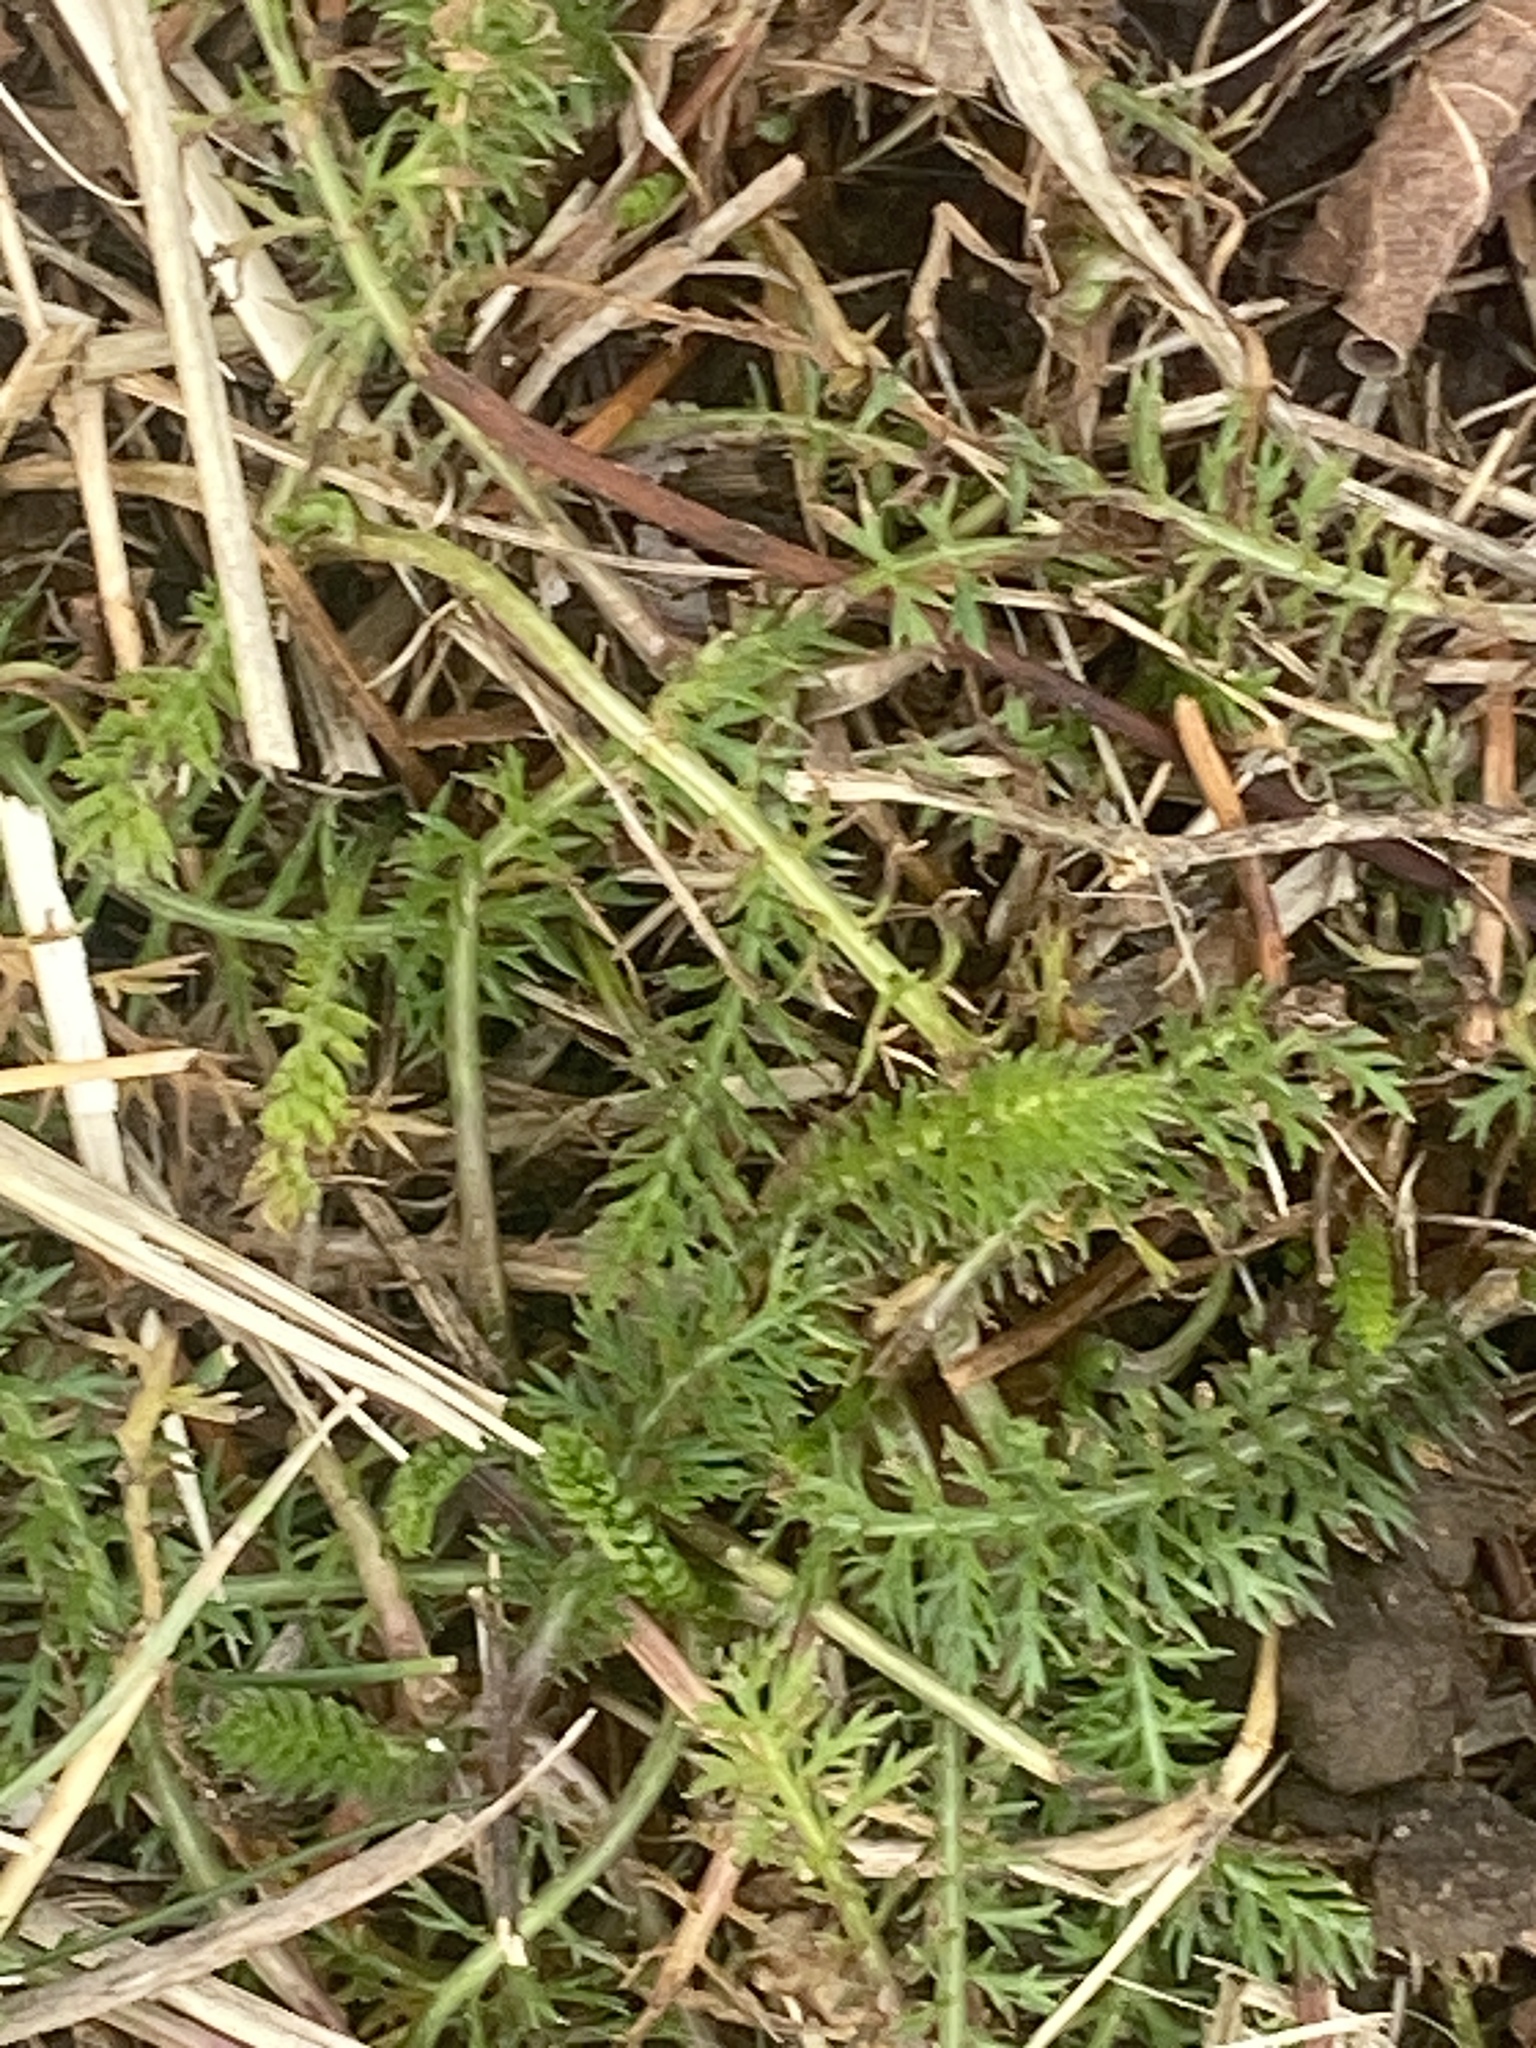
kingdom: Plantae
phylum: Tracheophyta
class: Magnoliopsida
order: Asterales
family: Asteraceae
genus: Achillea
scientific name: Achillea millefolium
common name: Yarrow
